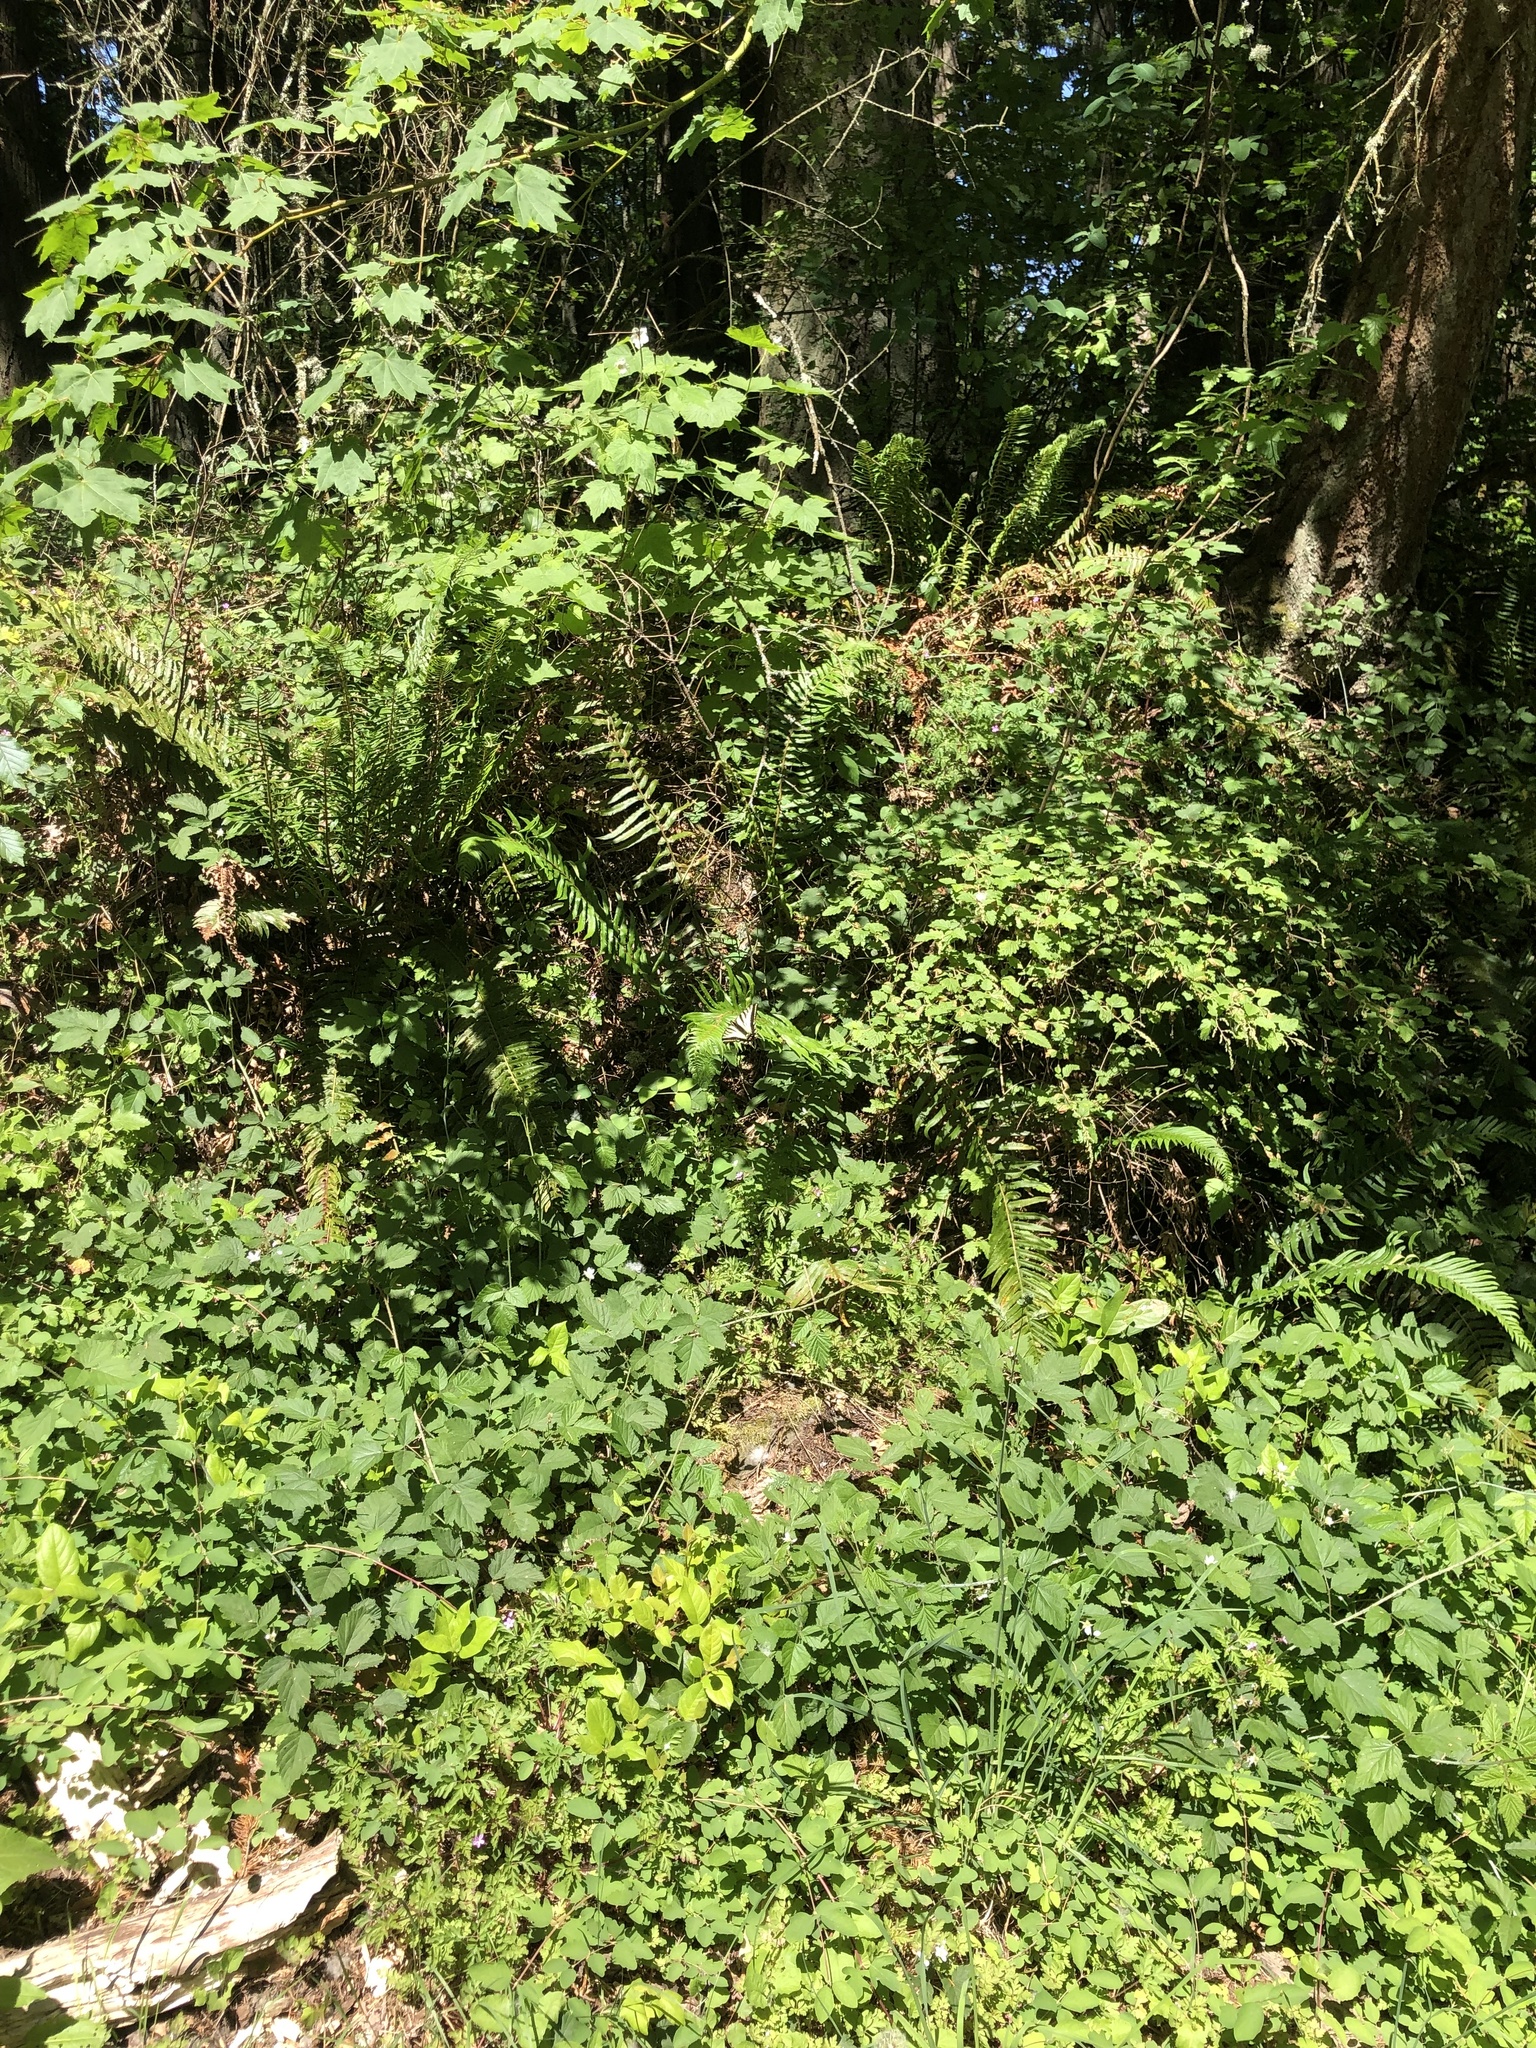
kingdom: Animalia
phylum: Arthropoda
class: Insecta
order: Lepidoptera
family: Papilionidae
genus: Papilio
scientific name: Papilio rutulus
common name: Western tiger swallowtail
